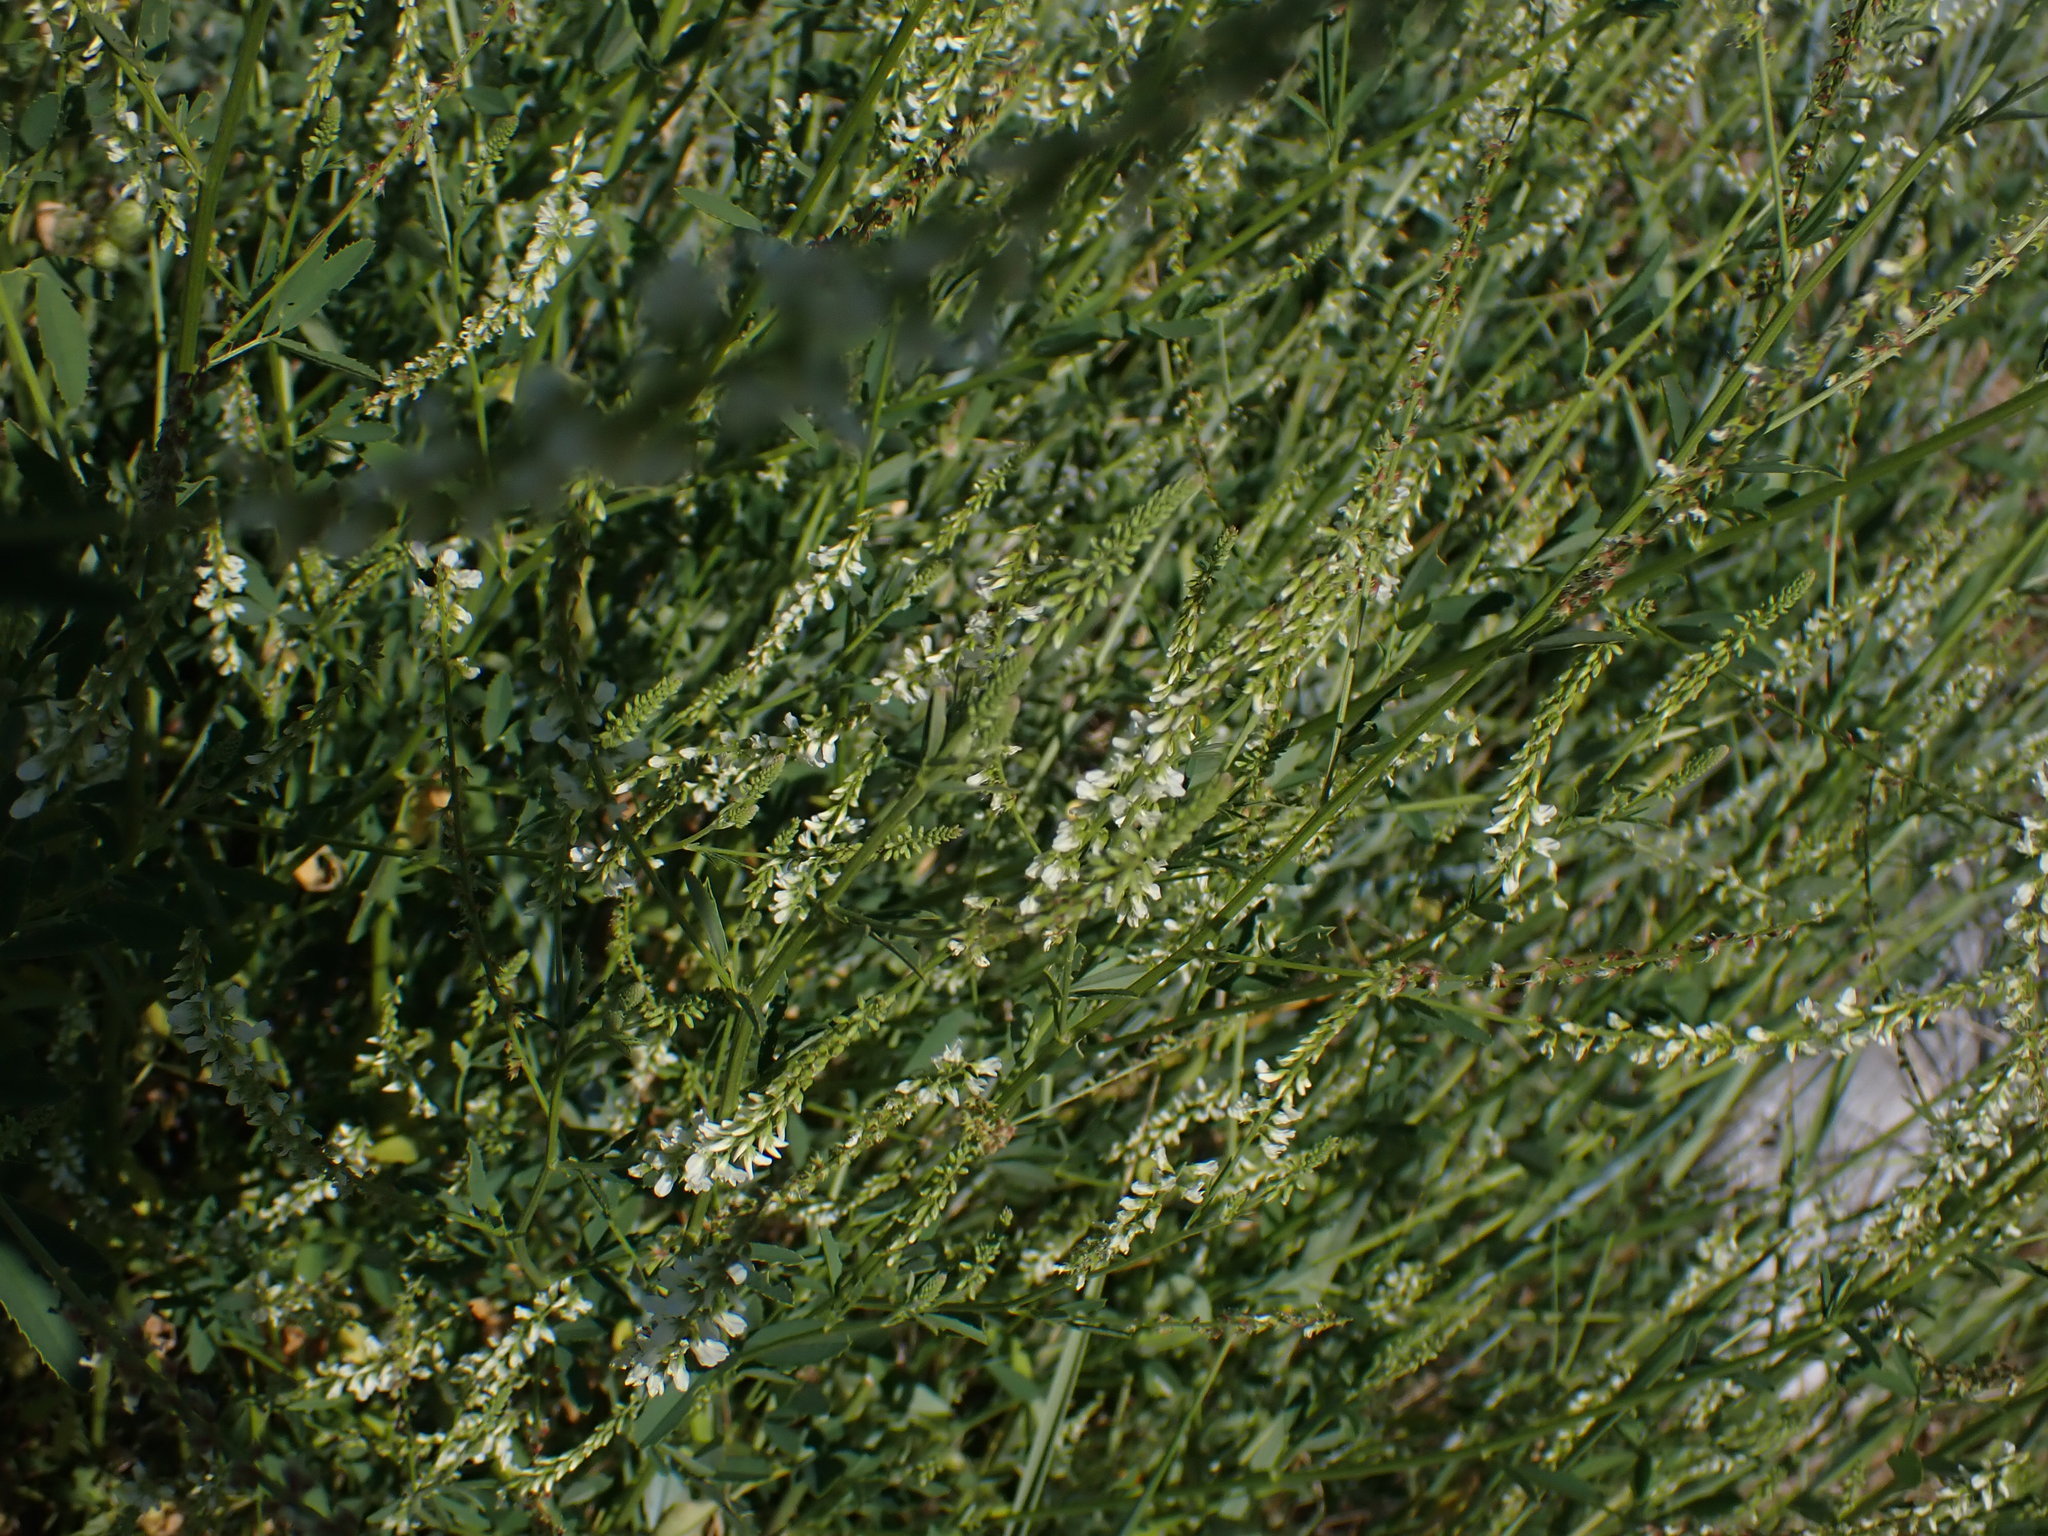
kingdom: Plantae
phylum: Tracheophyta
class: Magnoliopsida
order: Fabales
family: Fabaceae
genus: Melilotus
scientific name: Melilotus albus
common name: White melilot
